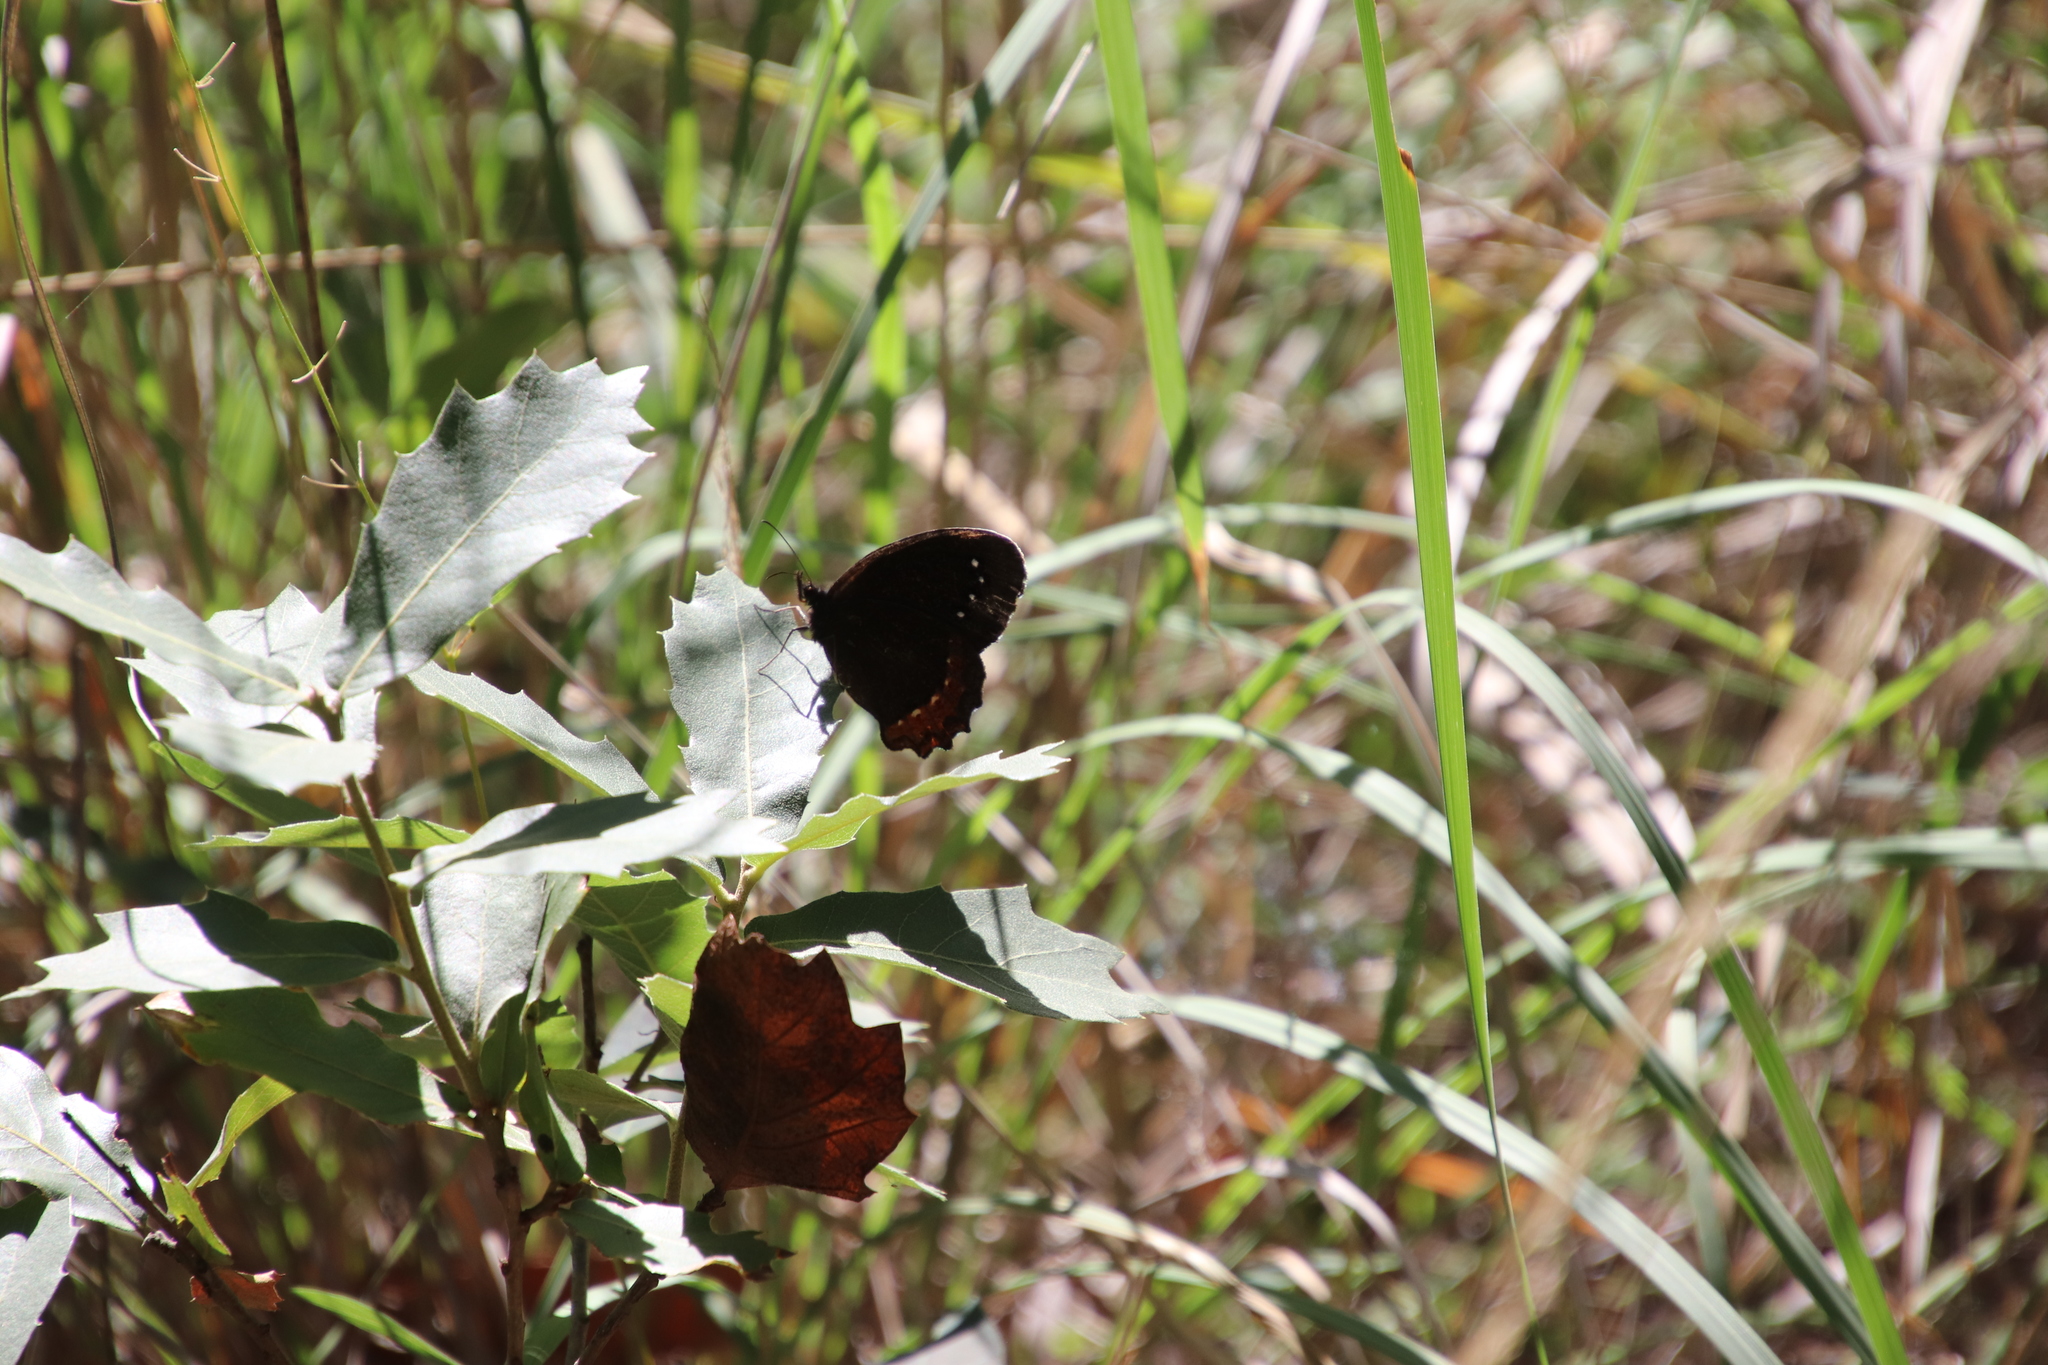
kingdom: Animalia
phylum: Arthropoda
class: Insecta
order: Lepidoptera
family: Nymphalidae
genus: Gyrocheilus
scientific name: Gyrocheilus patrobas
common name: Red-bordered satyr
